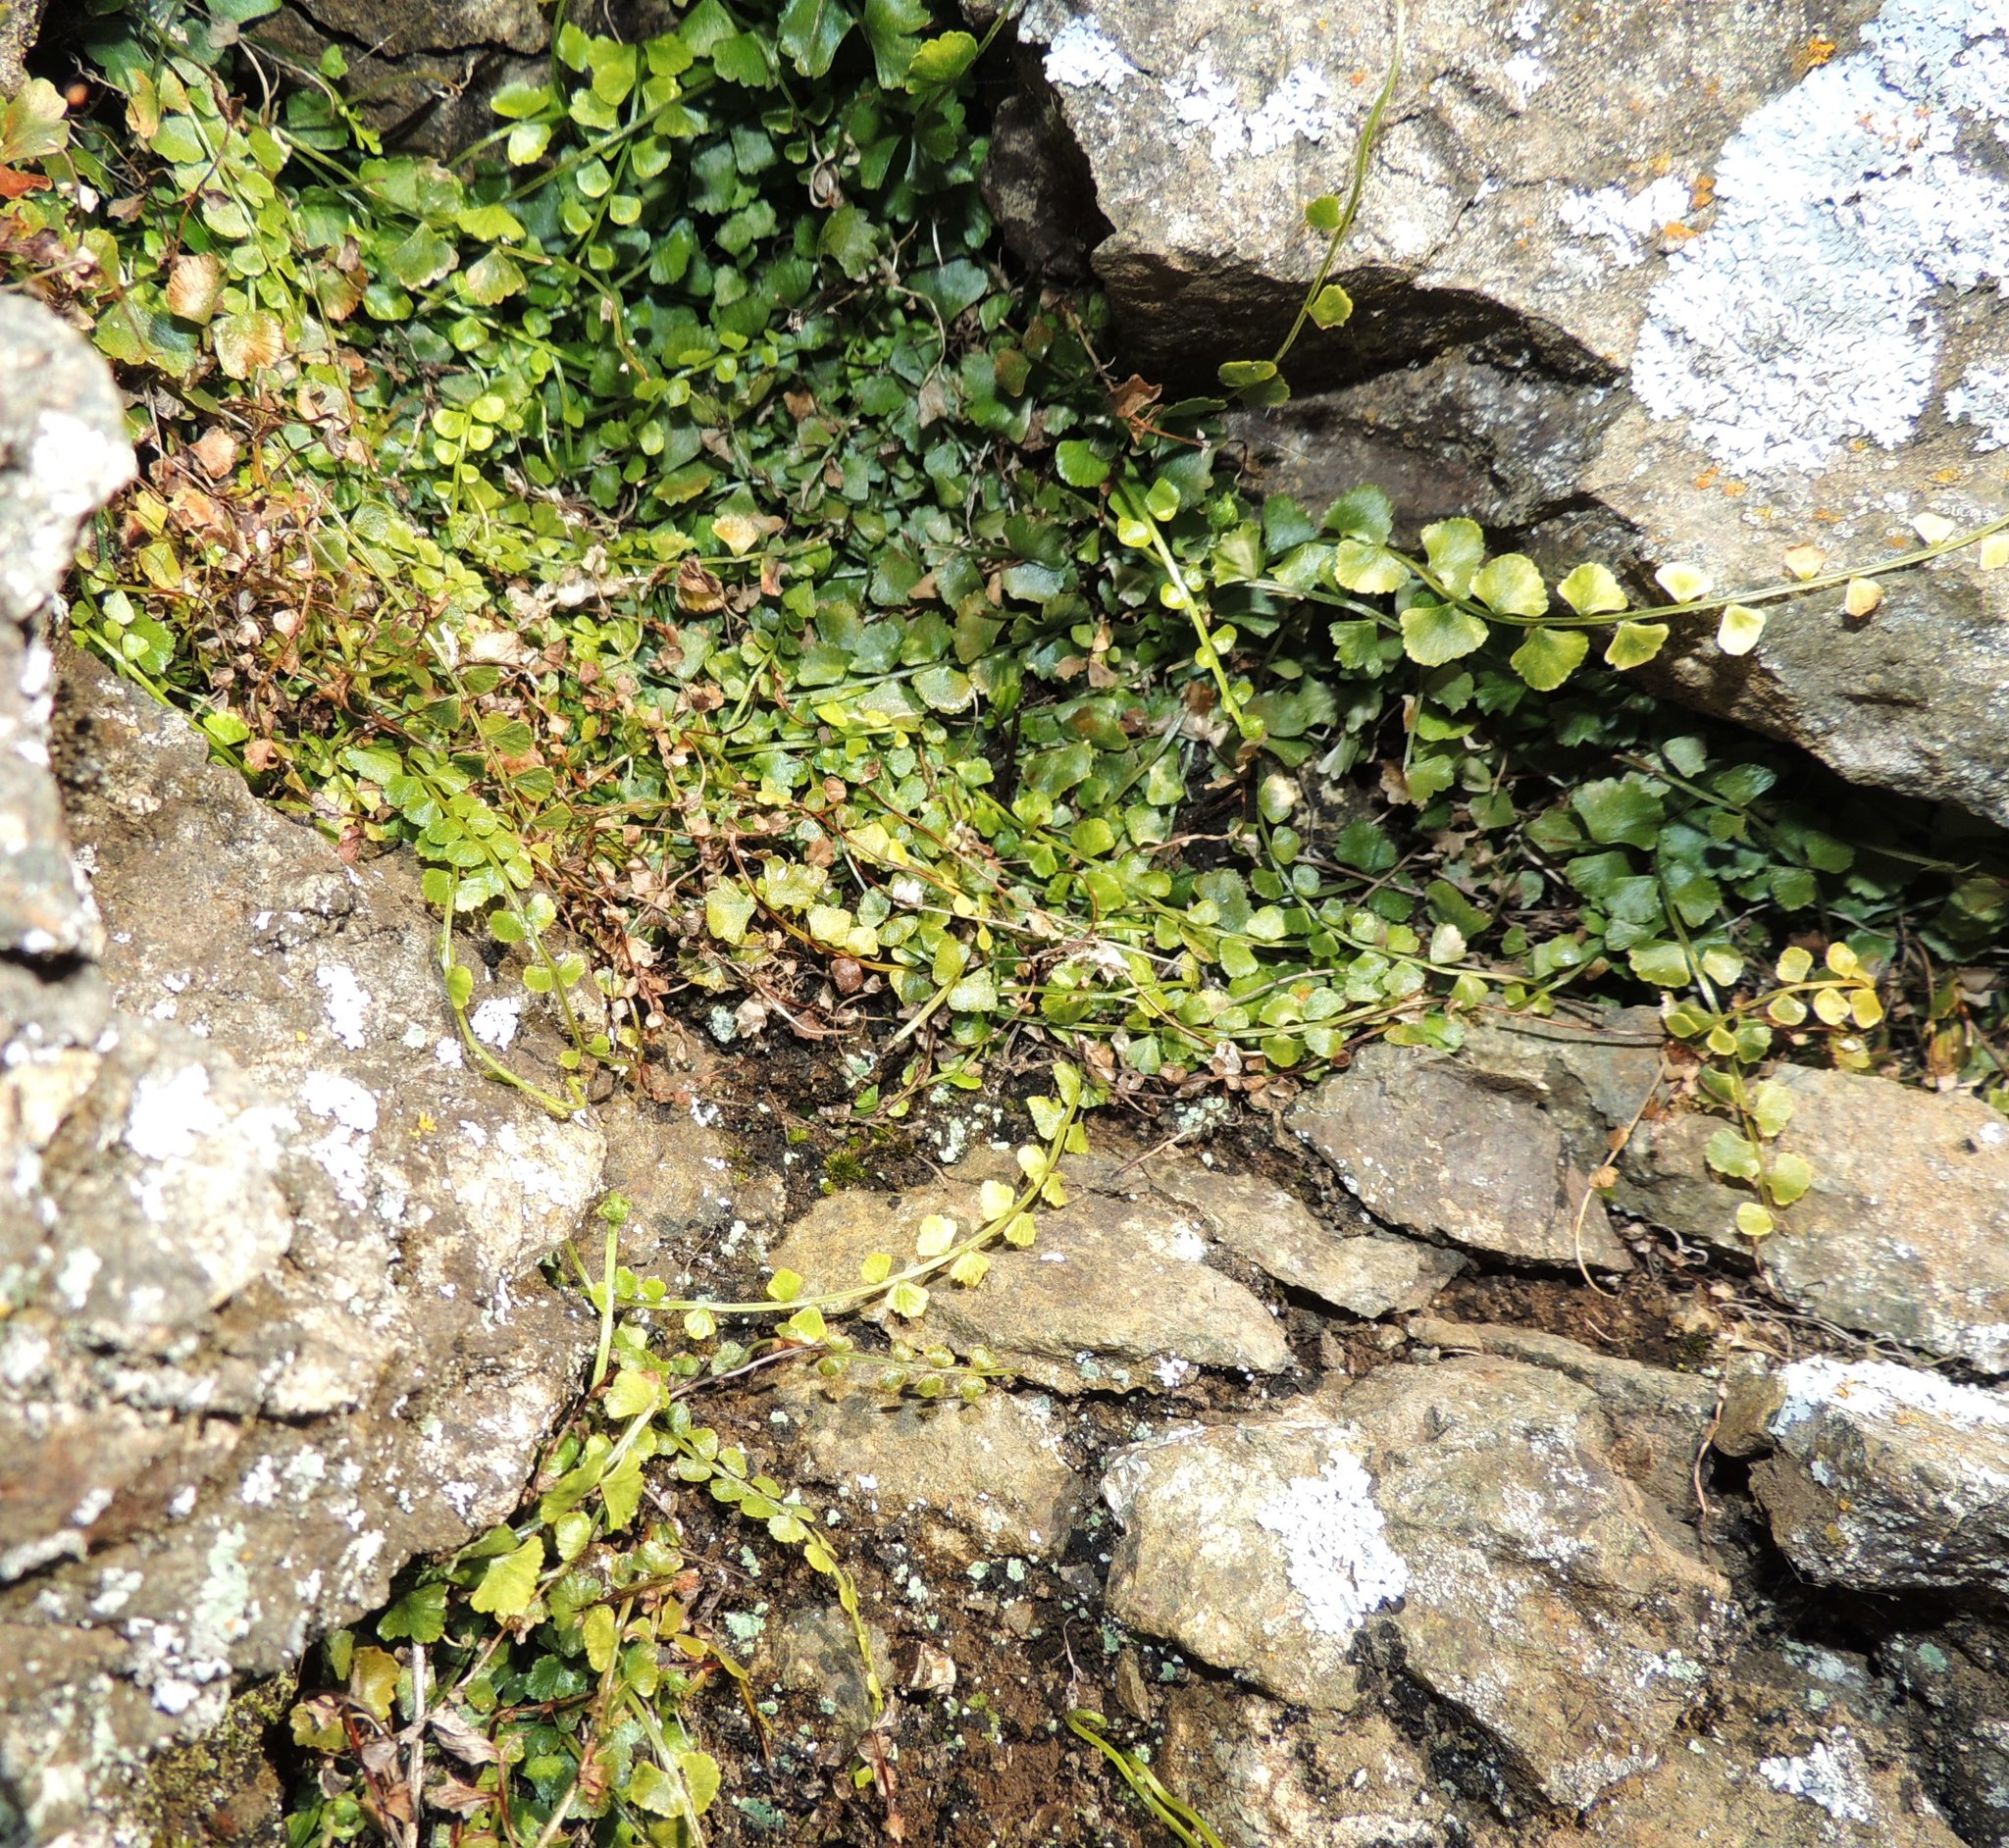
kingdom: Plantae
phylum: Tracheophyta
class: Polypodiopsida
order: Polypodiales
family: Aspleniaceae
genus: Asplenium
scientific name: Asplenium flabellifolium
